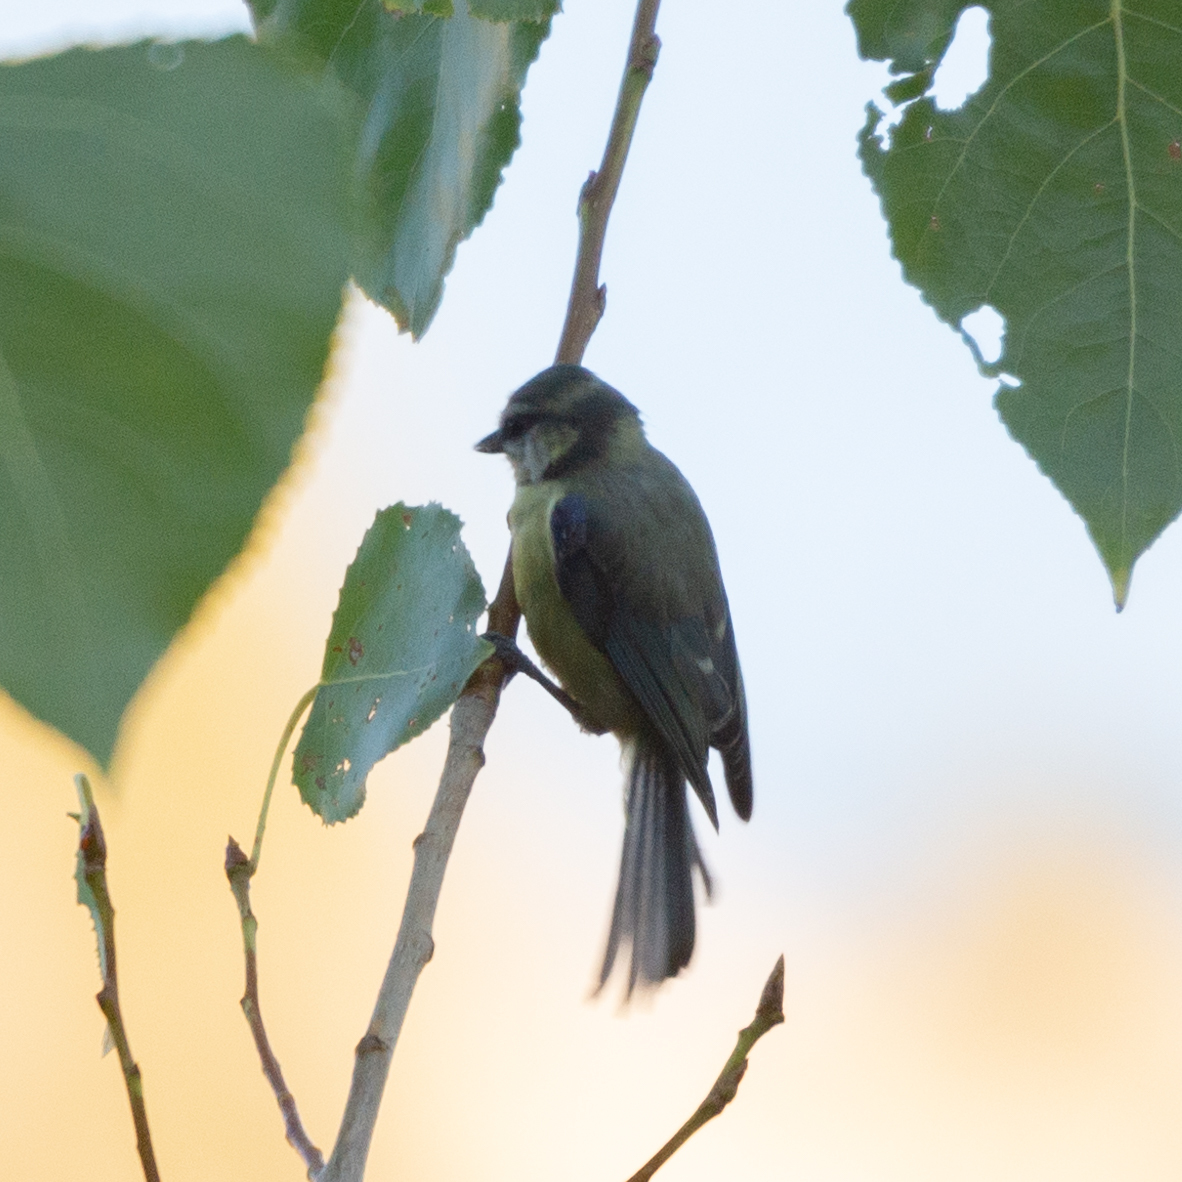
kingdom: Animalia
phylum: Chordata
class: Aves
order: Passeriformes
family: Paridae
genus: Cyanistes
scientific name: Cyanistes caeruleus
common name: Eurasian blue tit
